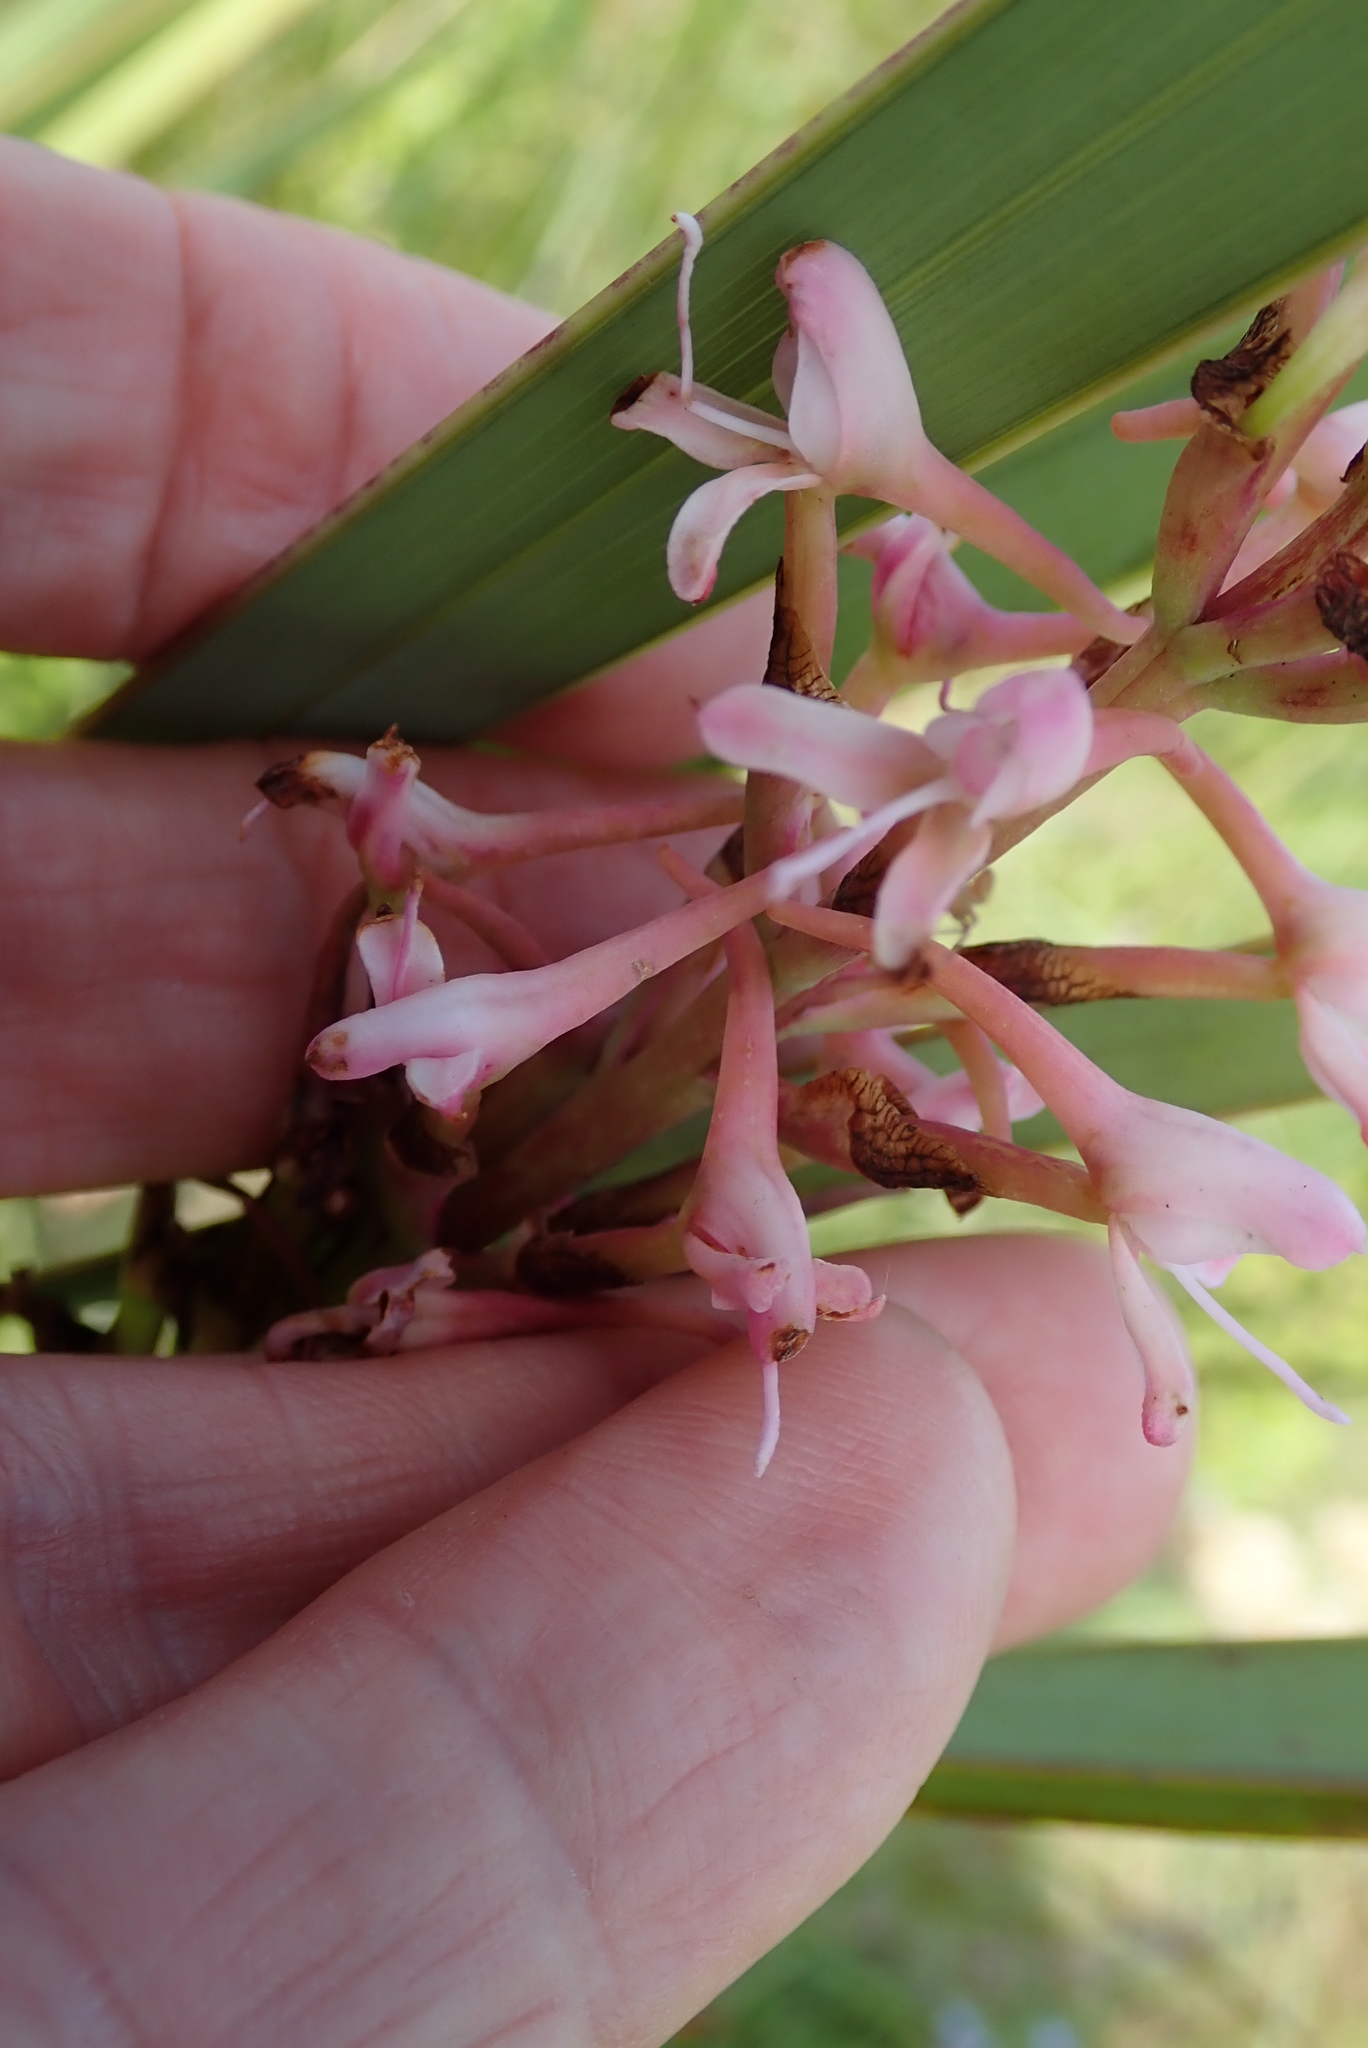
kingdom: Plantae
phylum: Tracheophyta
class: Liliopsida
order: Asparagales
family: Orchidaceae
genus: Disa
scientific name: Disa patula
